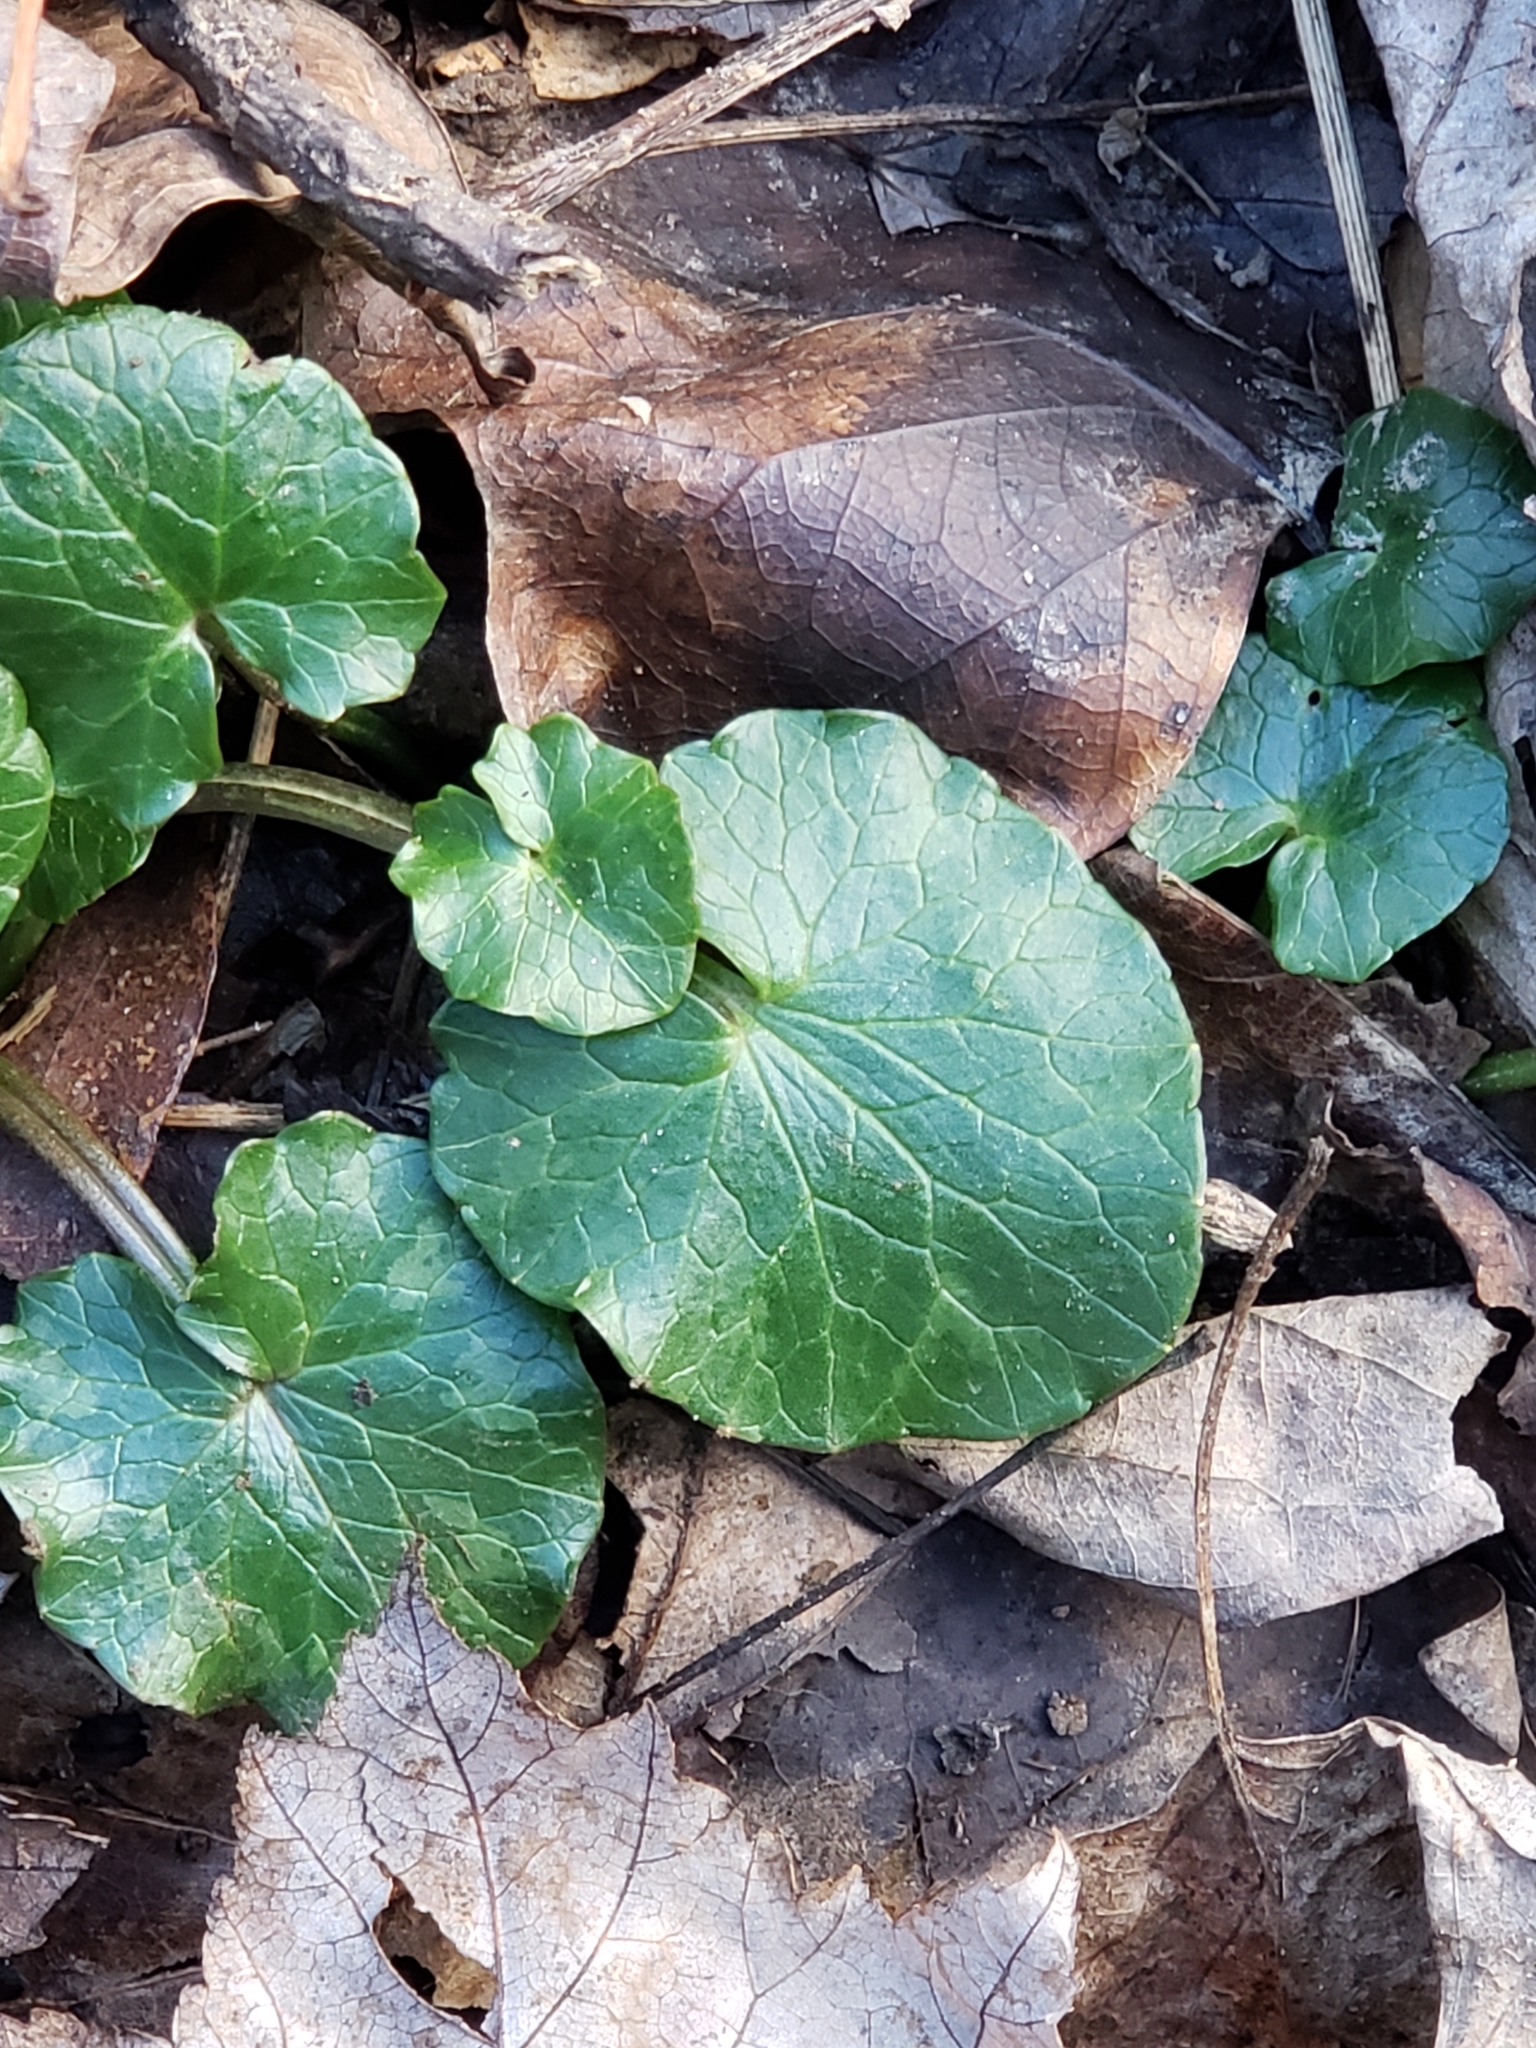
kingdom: Plantae
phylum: Tracheophyta
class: Magnoliopsida
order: Ranunculales
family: Ranunculaceae
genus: Ficaria
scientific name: Ficaria verna
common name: Lesser celandine
